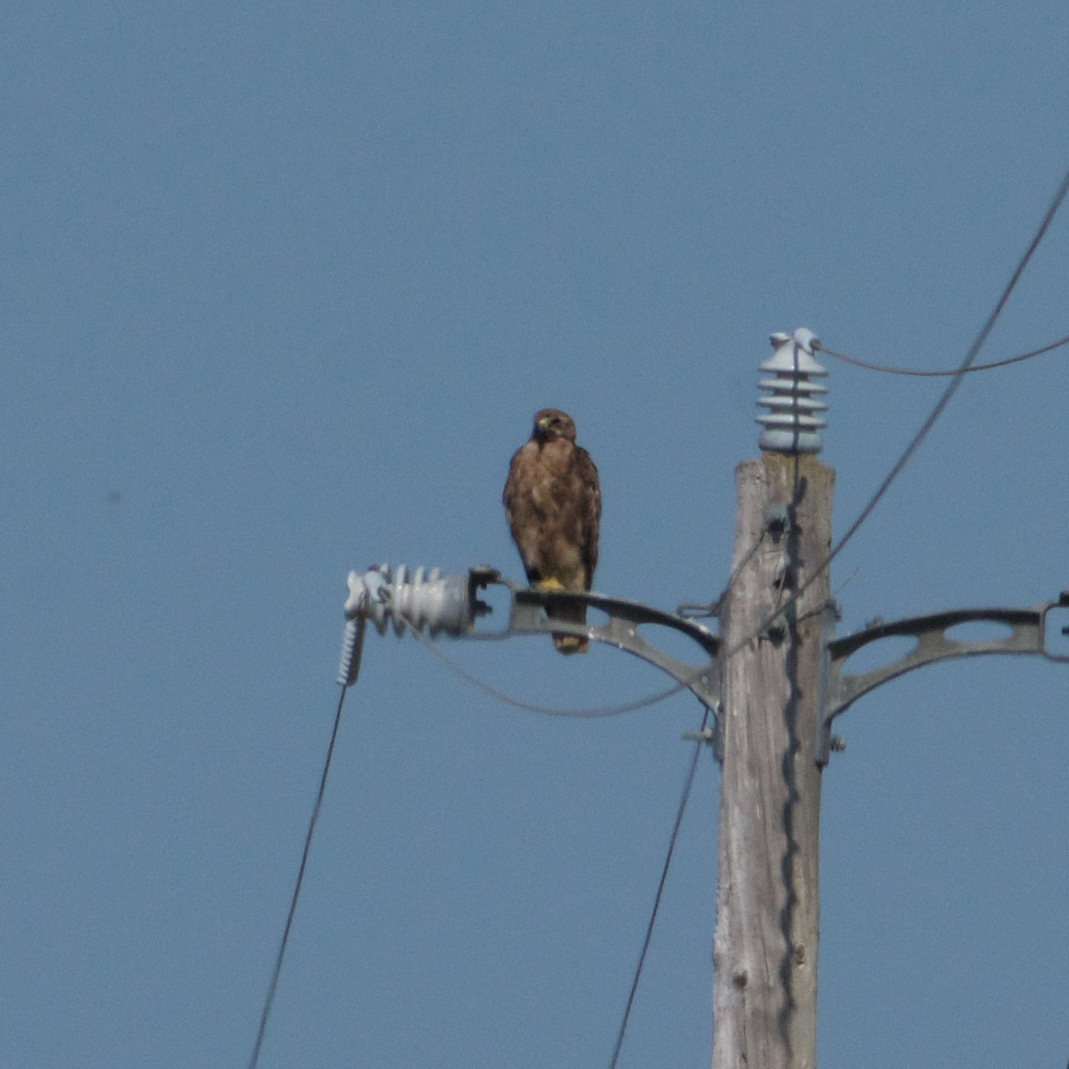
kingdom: Animalia
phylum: Chordata
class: Aves
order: Accipitriformes
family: Accipitridae
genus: Buteo
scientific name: Buteo jamaicensis
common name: Red-tailed hawk
